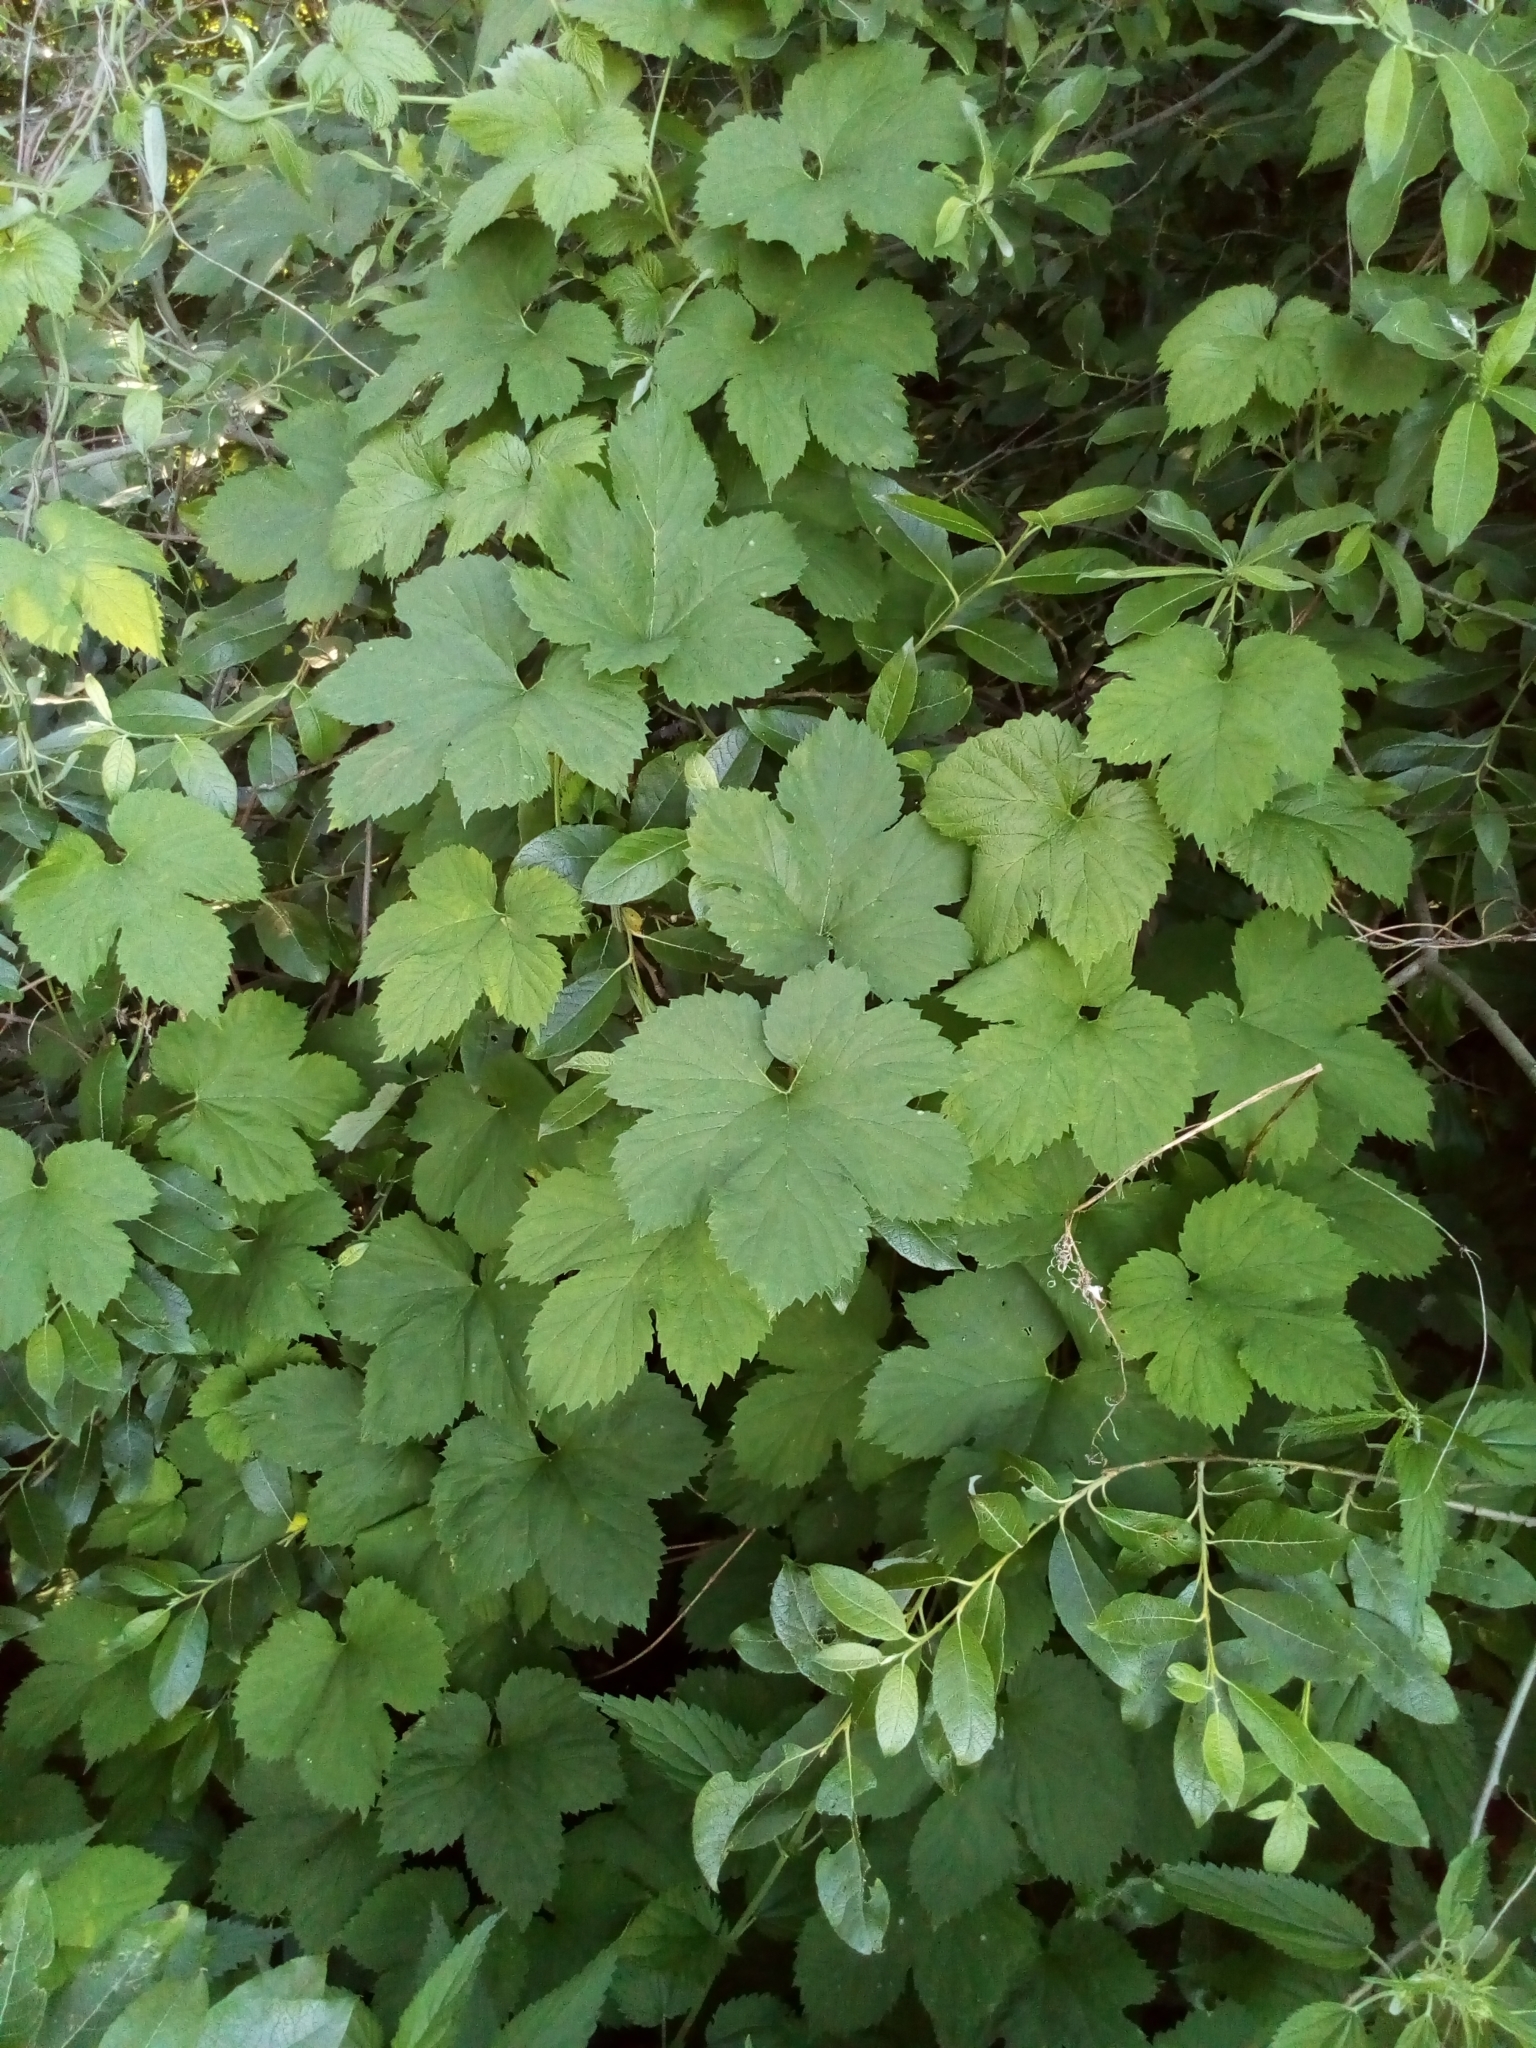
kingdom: Plantae
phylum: Tracheophyta
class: Magnoliopsida
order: Rosales
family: Cannabaceae
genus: Humulus
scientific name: Humulus lupulus
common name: Hop
